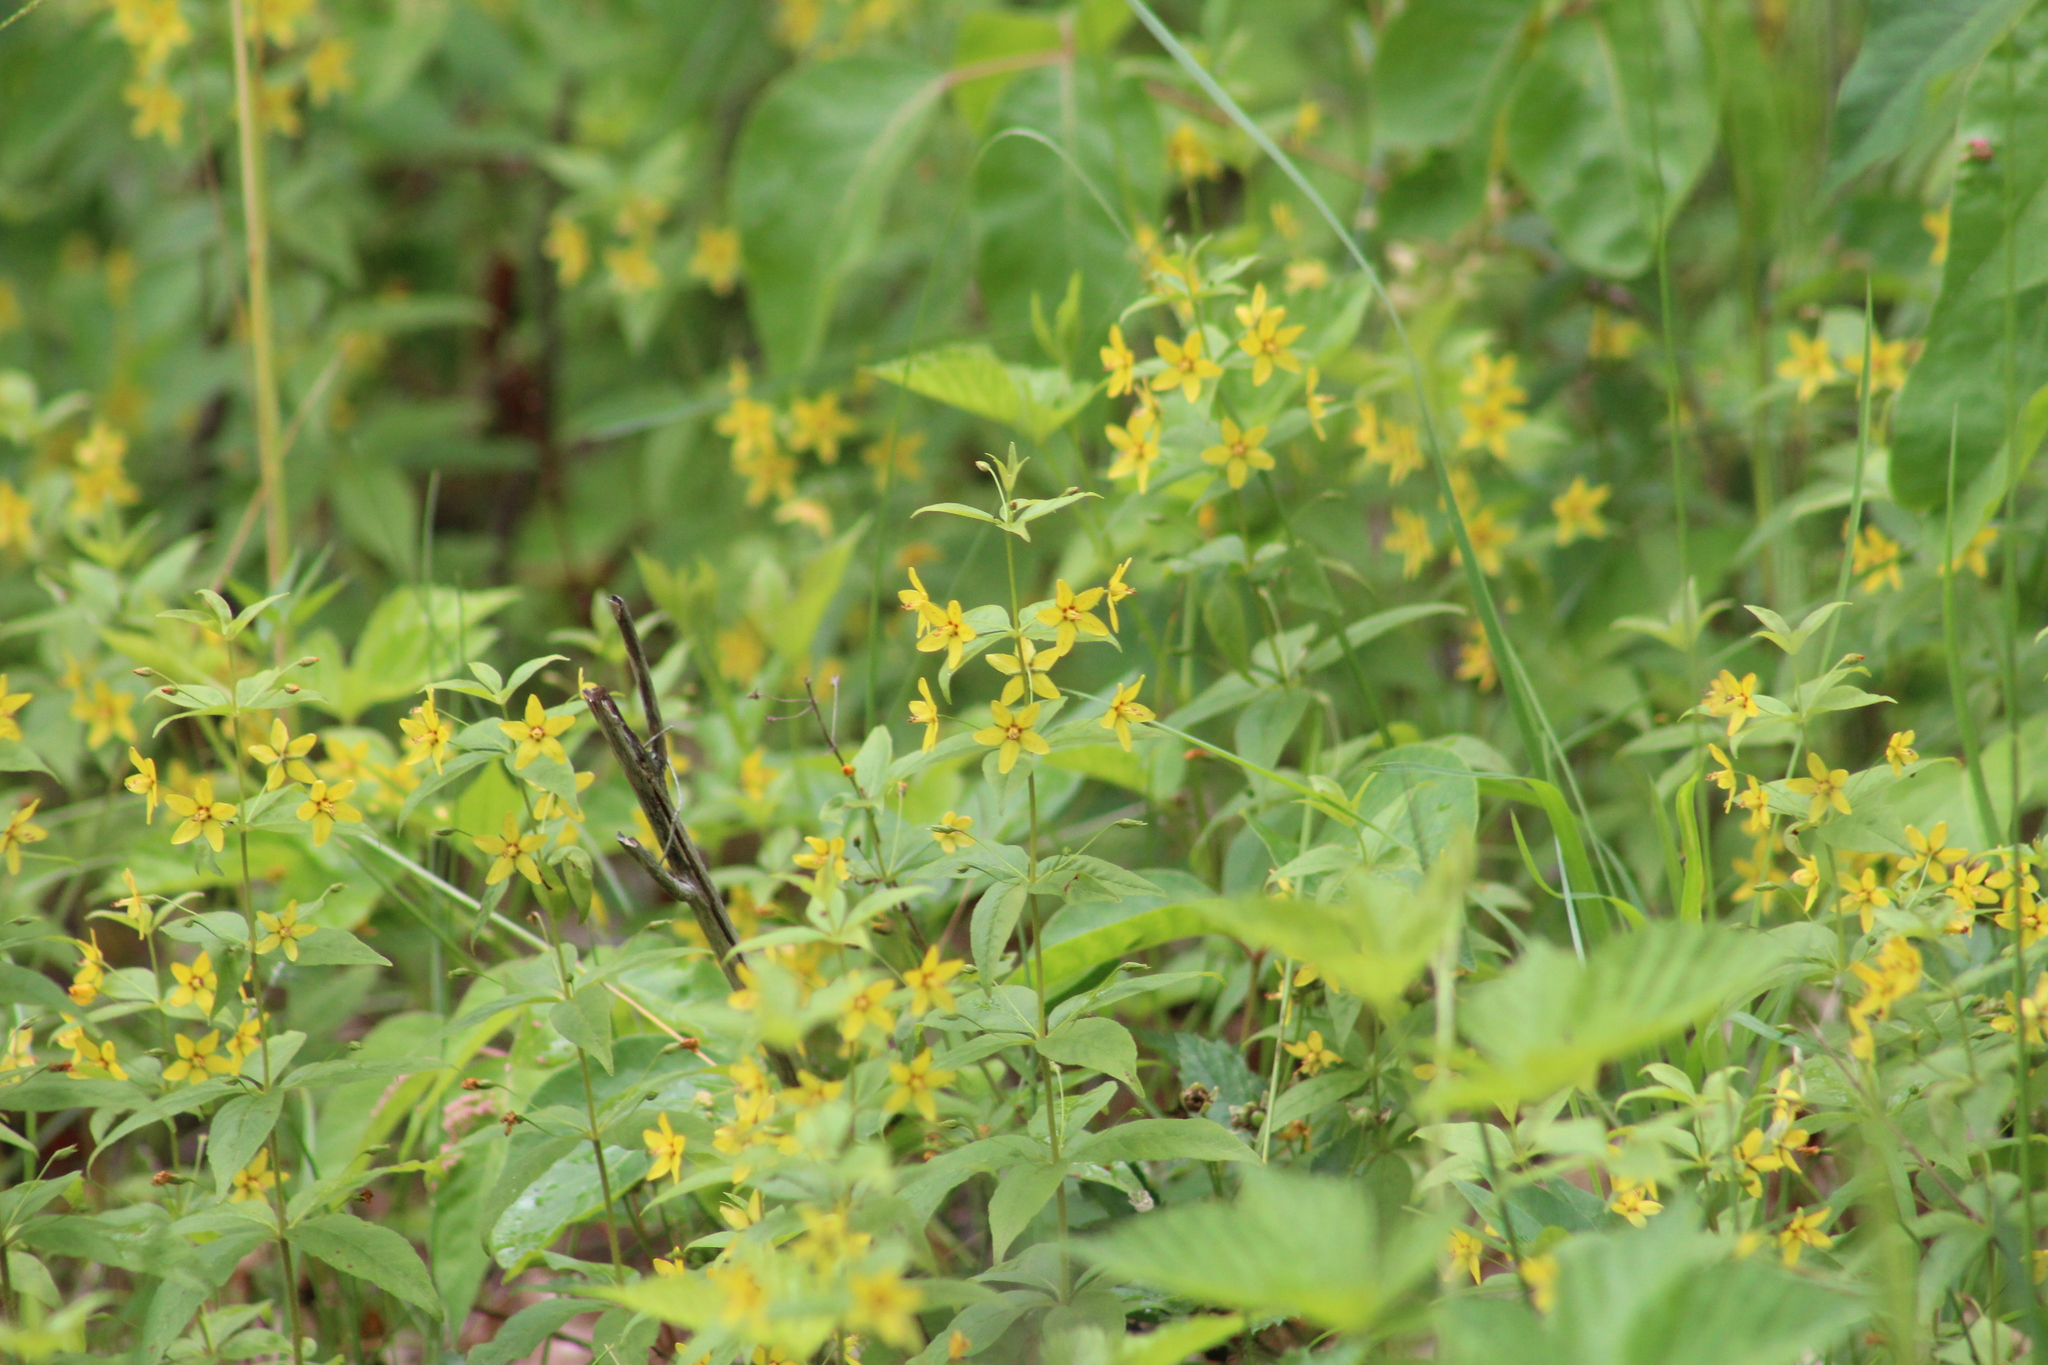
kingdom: Plantae
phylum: Tracheophyta
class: Magnoliopsida
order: Ericales
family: Primulaceae
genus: Lysimachia
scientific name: Lysimachia quadrifolia
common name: Whorled loosestrife
